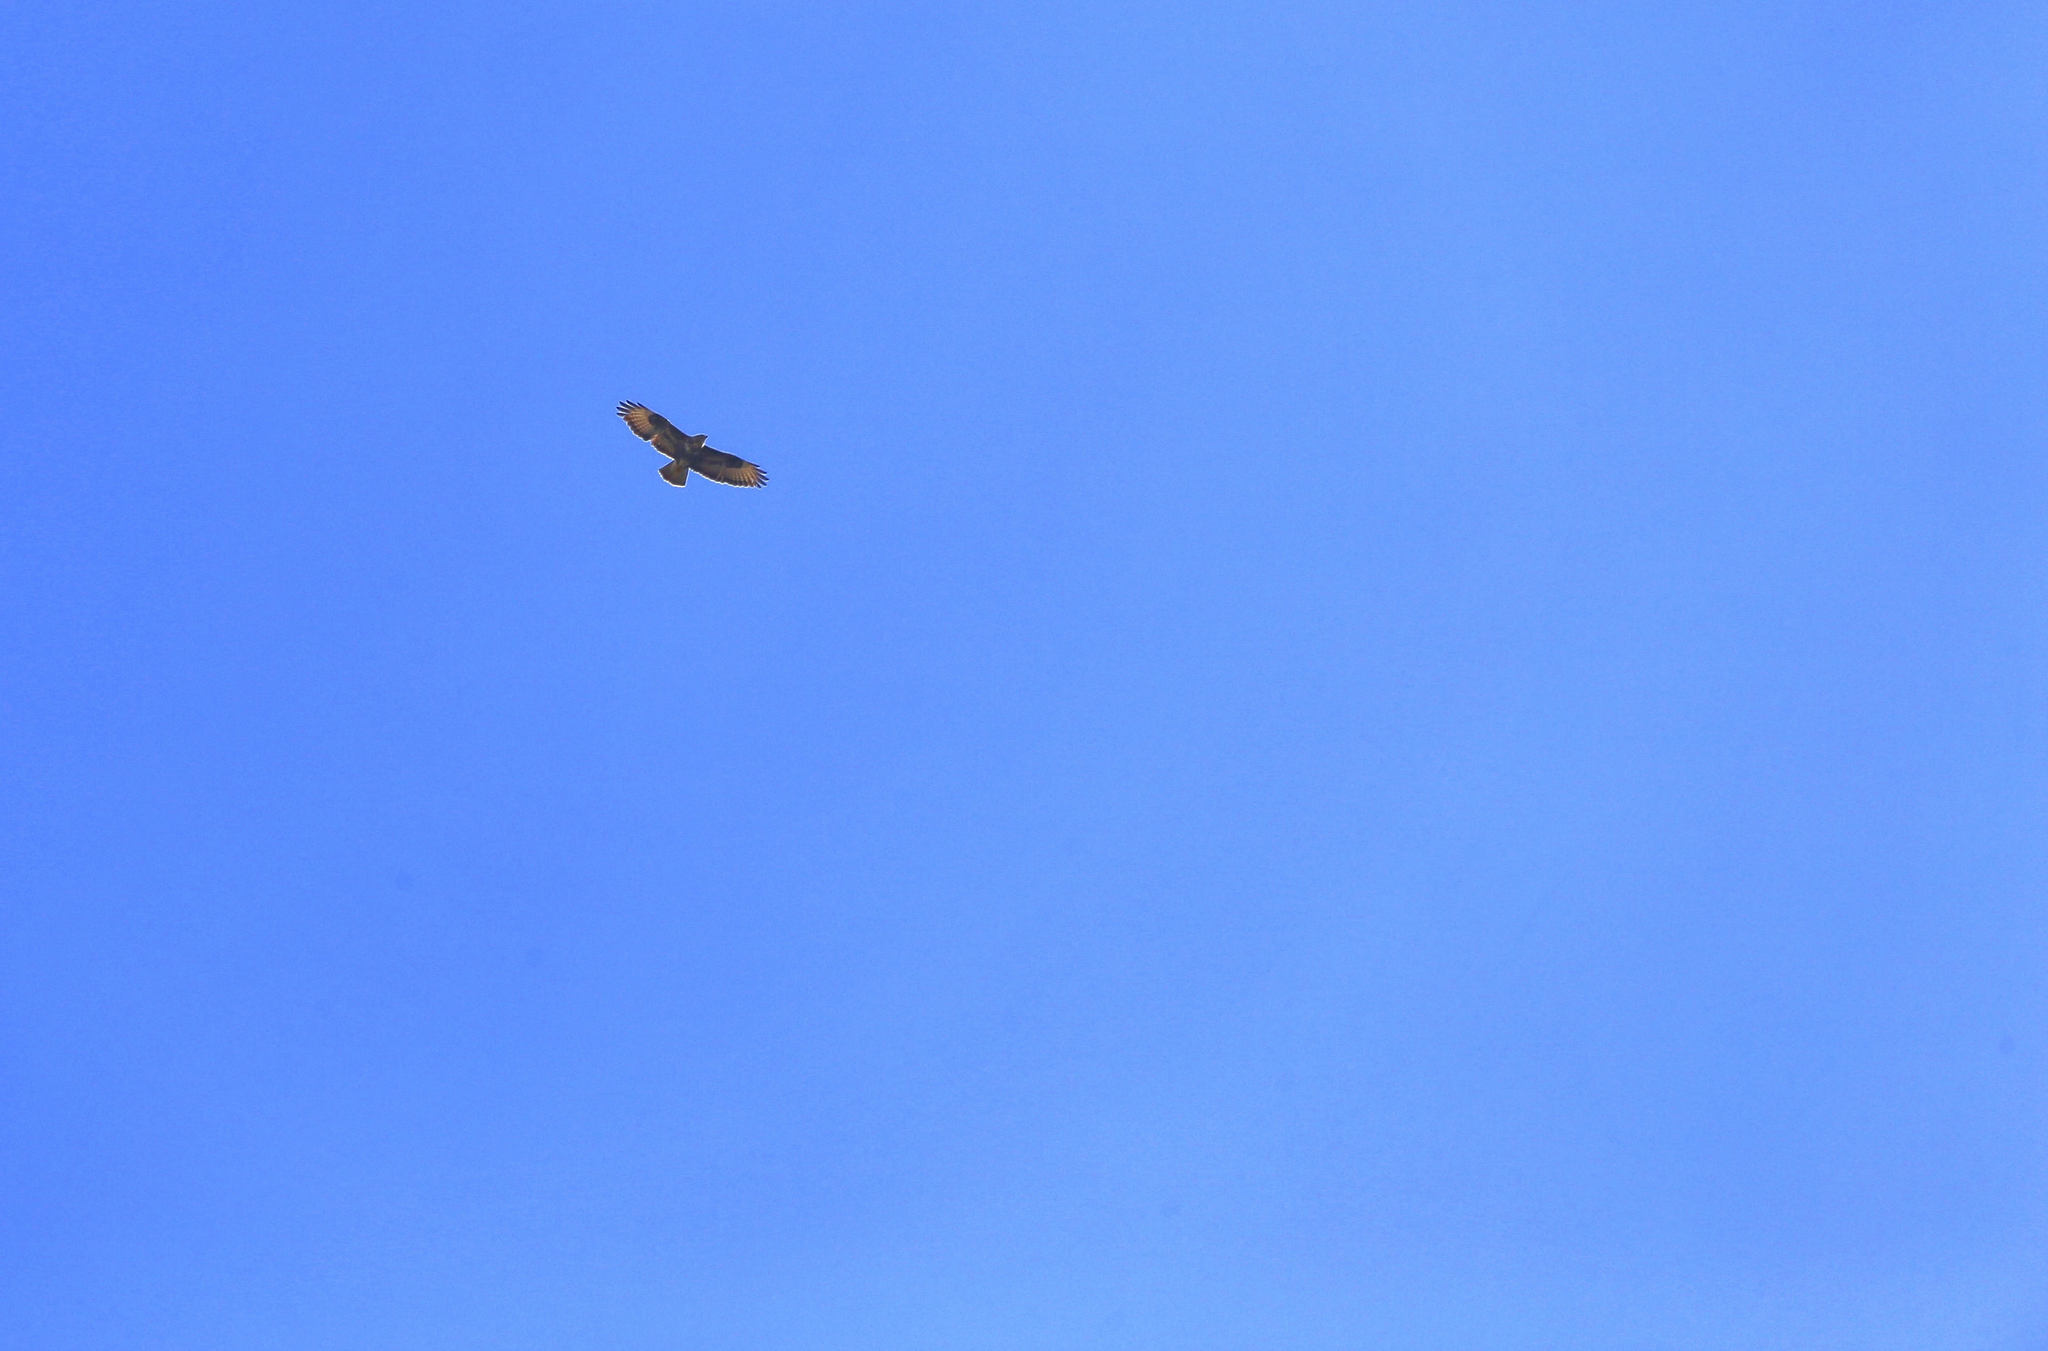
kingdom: Animalia
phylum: Chordata
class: Aves
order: Accipitriformes
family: Accipitridae
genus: Buteo
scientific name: Buteo buteo
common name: Common buzzard
